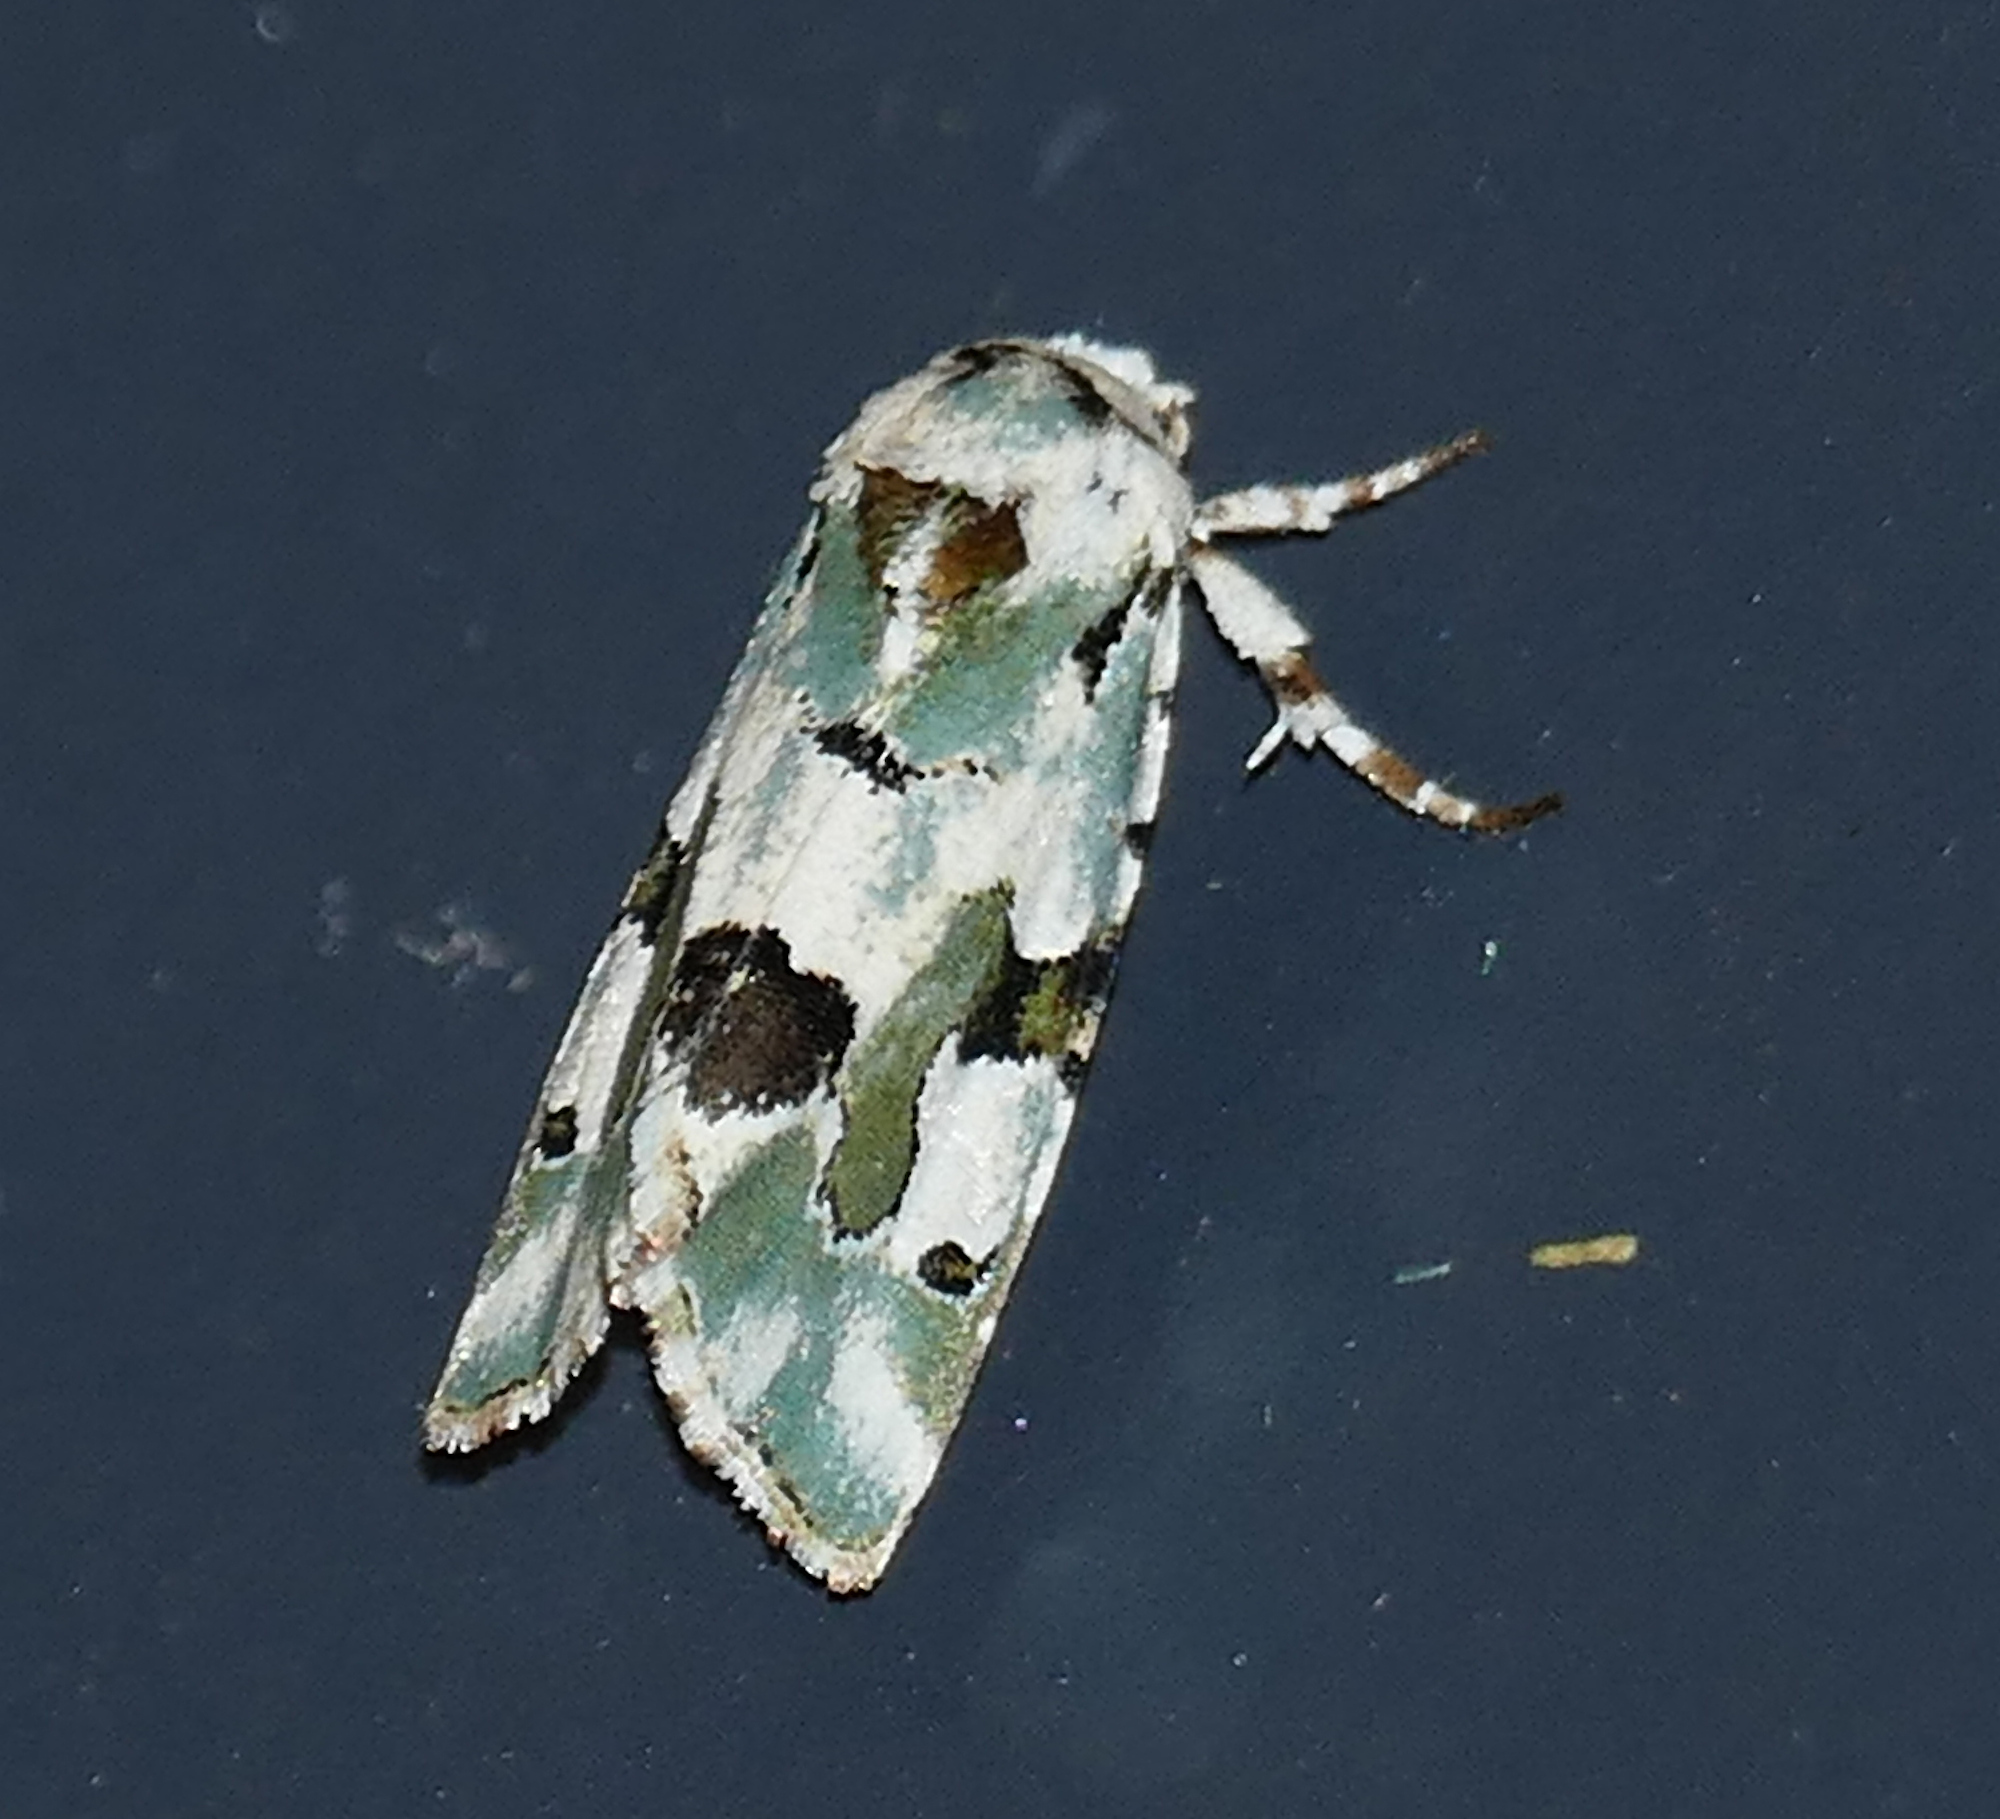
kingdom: Animalia
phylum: Arthropoda
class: Insecta
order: Lepidoptera
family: Noctuidae
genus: Emarginea
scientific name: Emarginea percara
